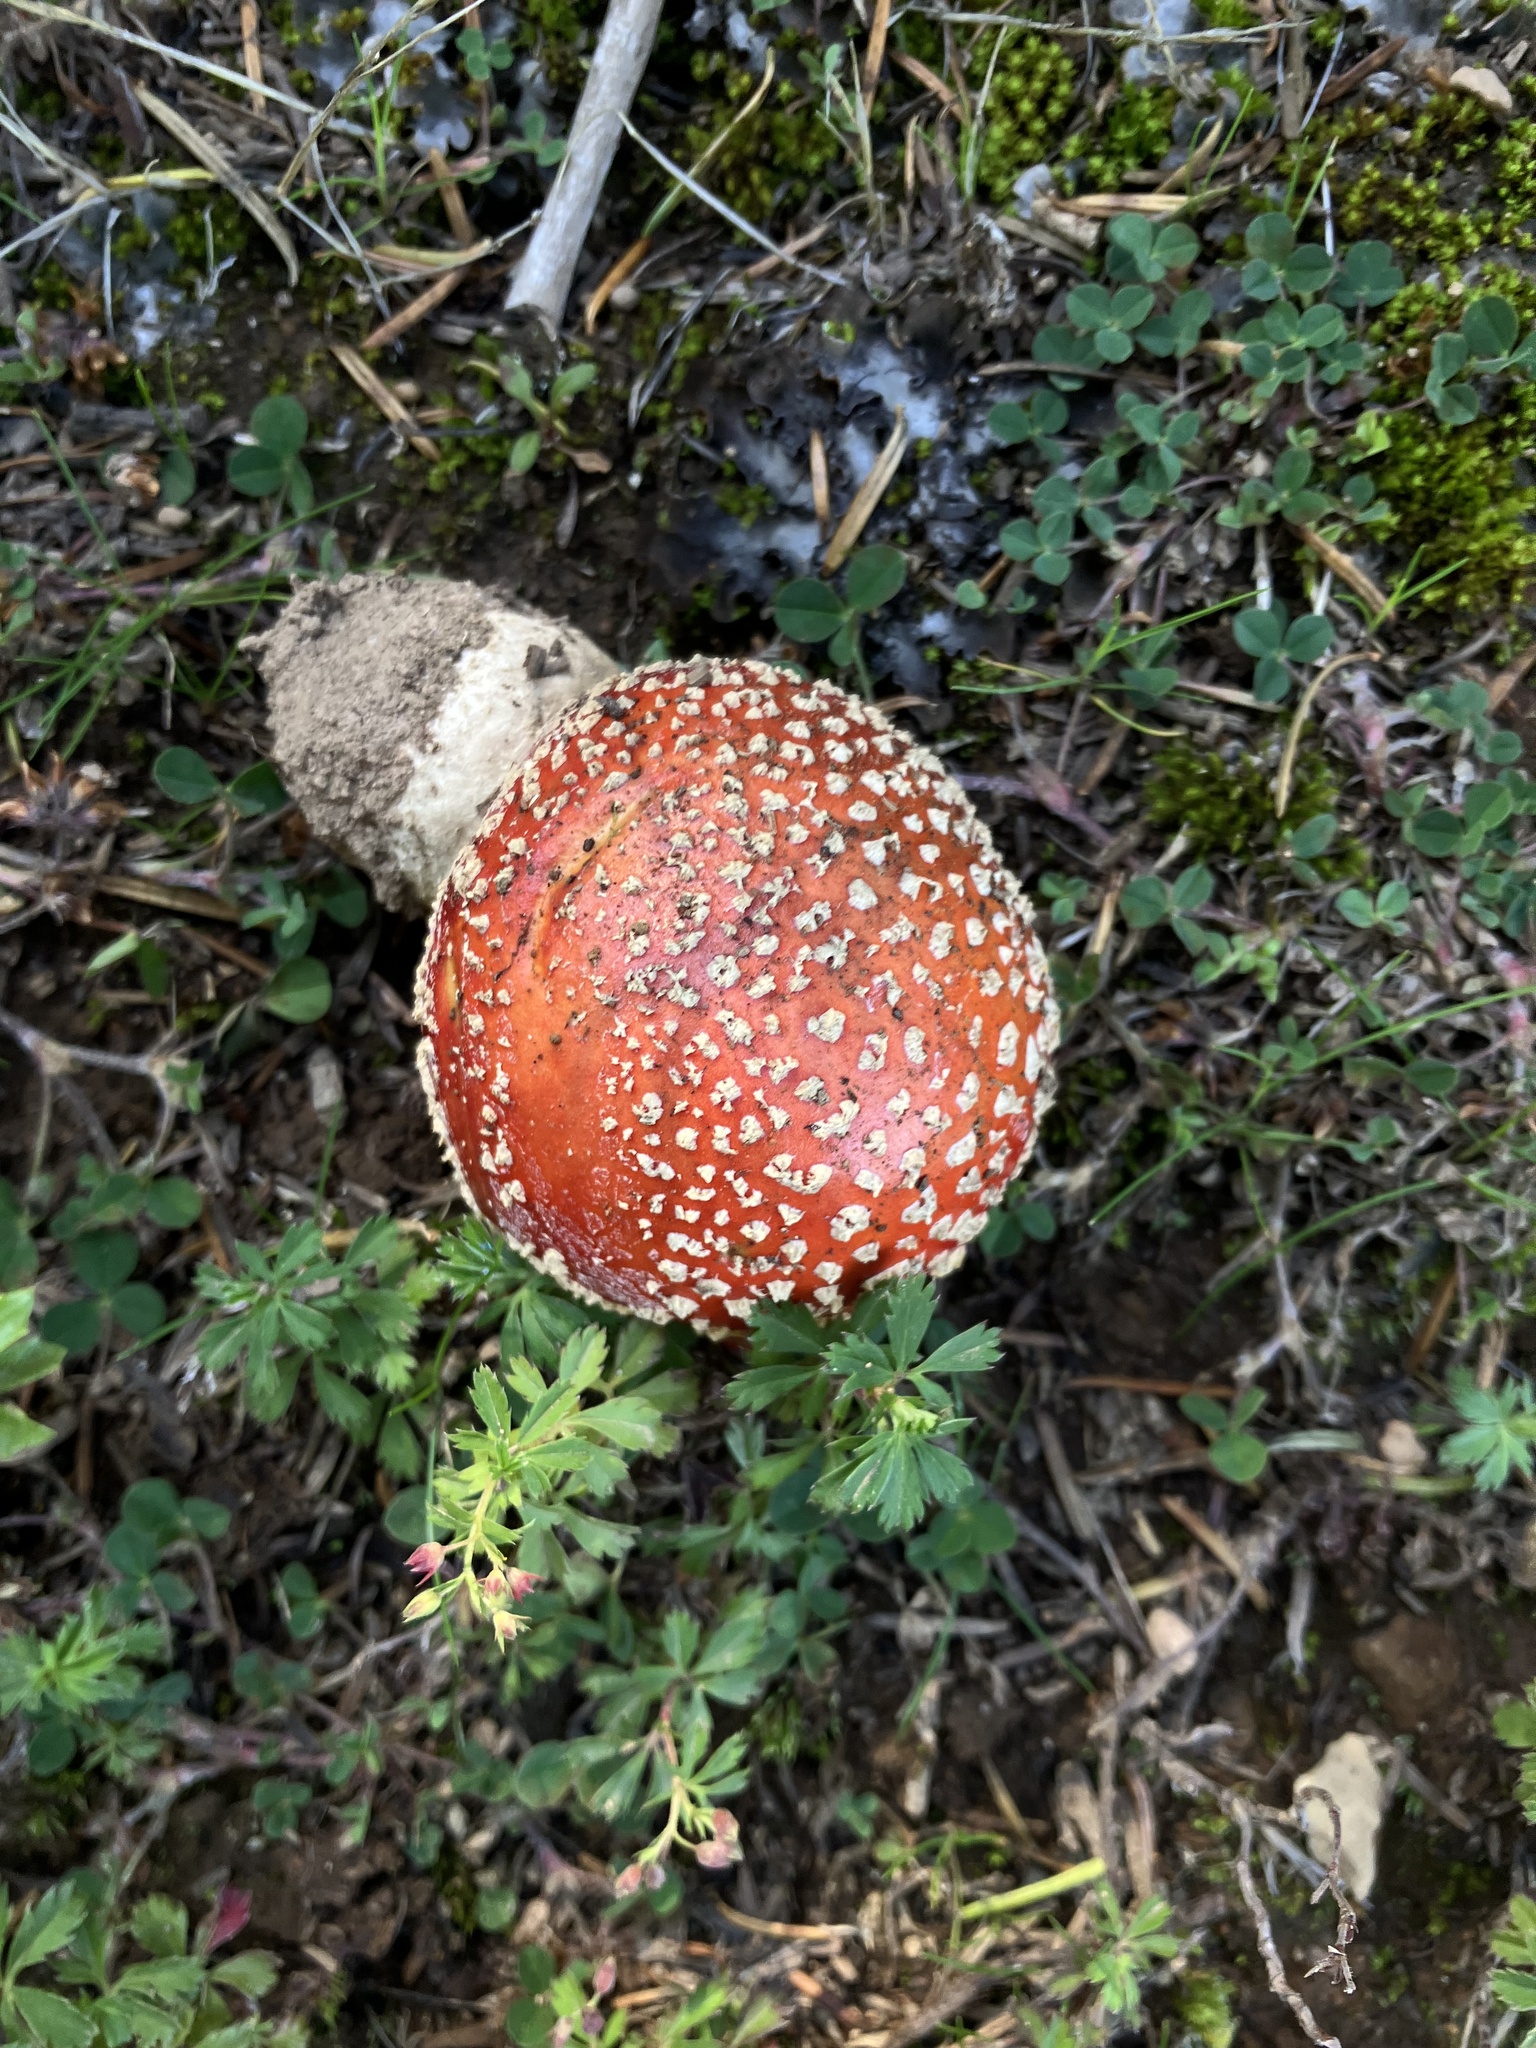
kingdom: Fungi
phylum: Basidiomycota
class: Agaricomycetes
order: Agaricales
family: Amanitaceae
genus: Amanita
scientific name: Amanita muscaria
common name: Fly agaric
